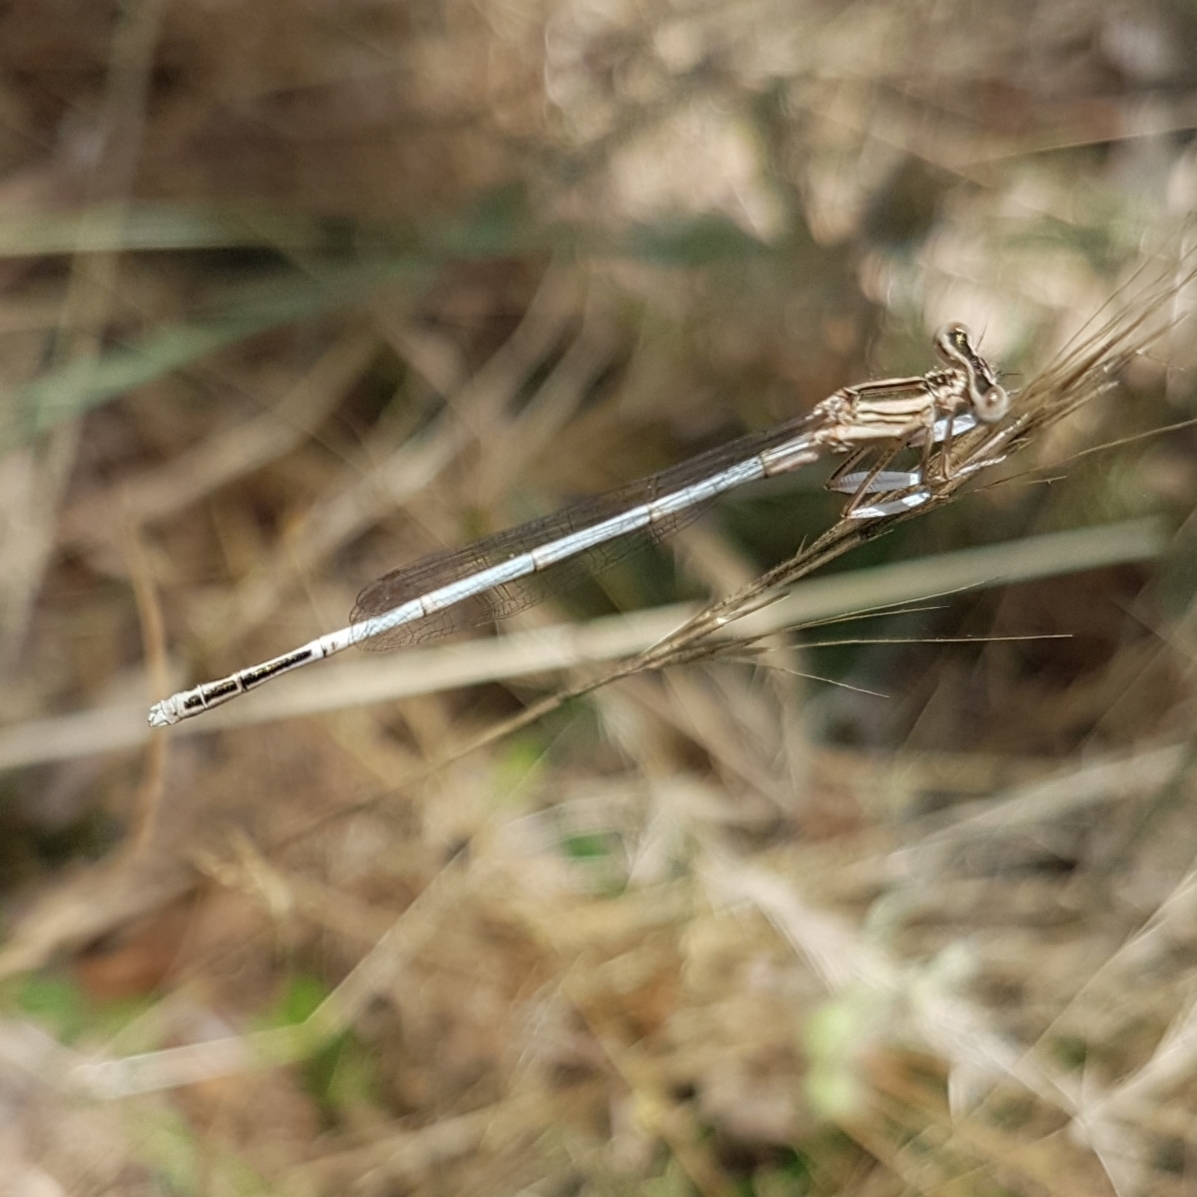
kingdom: Animalia
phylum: Arthropoda
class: Insecta
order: Odonata
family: Platycnemididae
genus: Platycnemis
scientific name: Platycnemis latipes
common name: White featherleg
